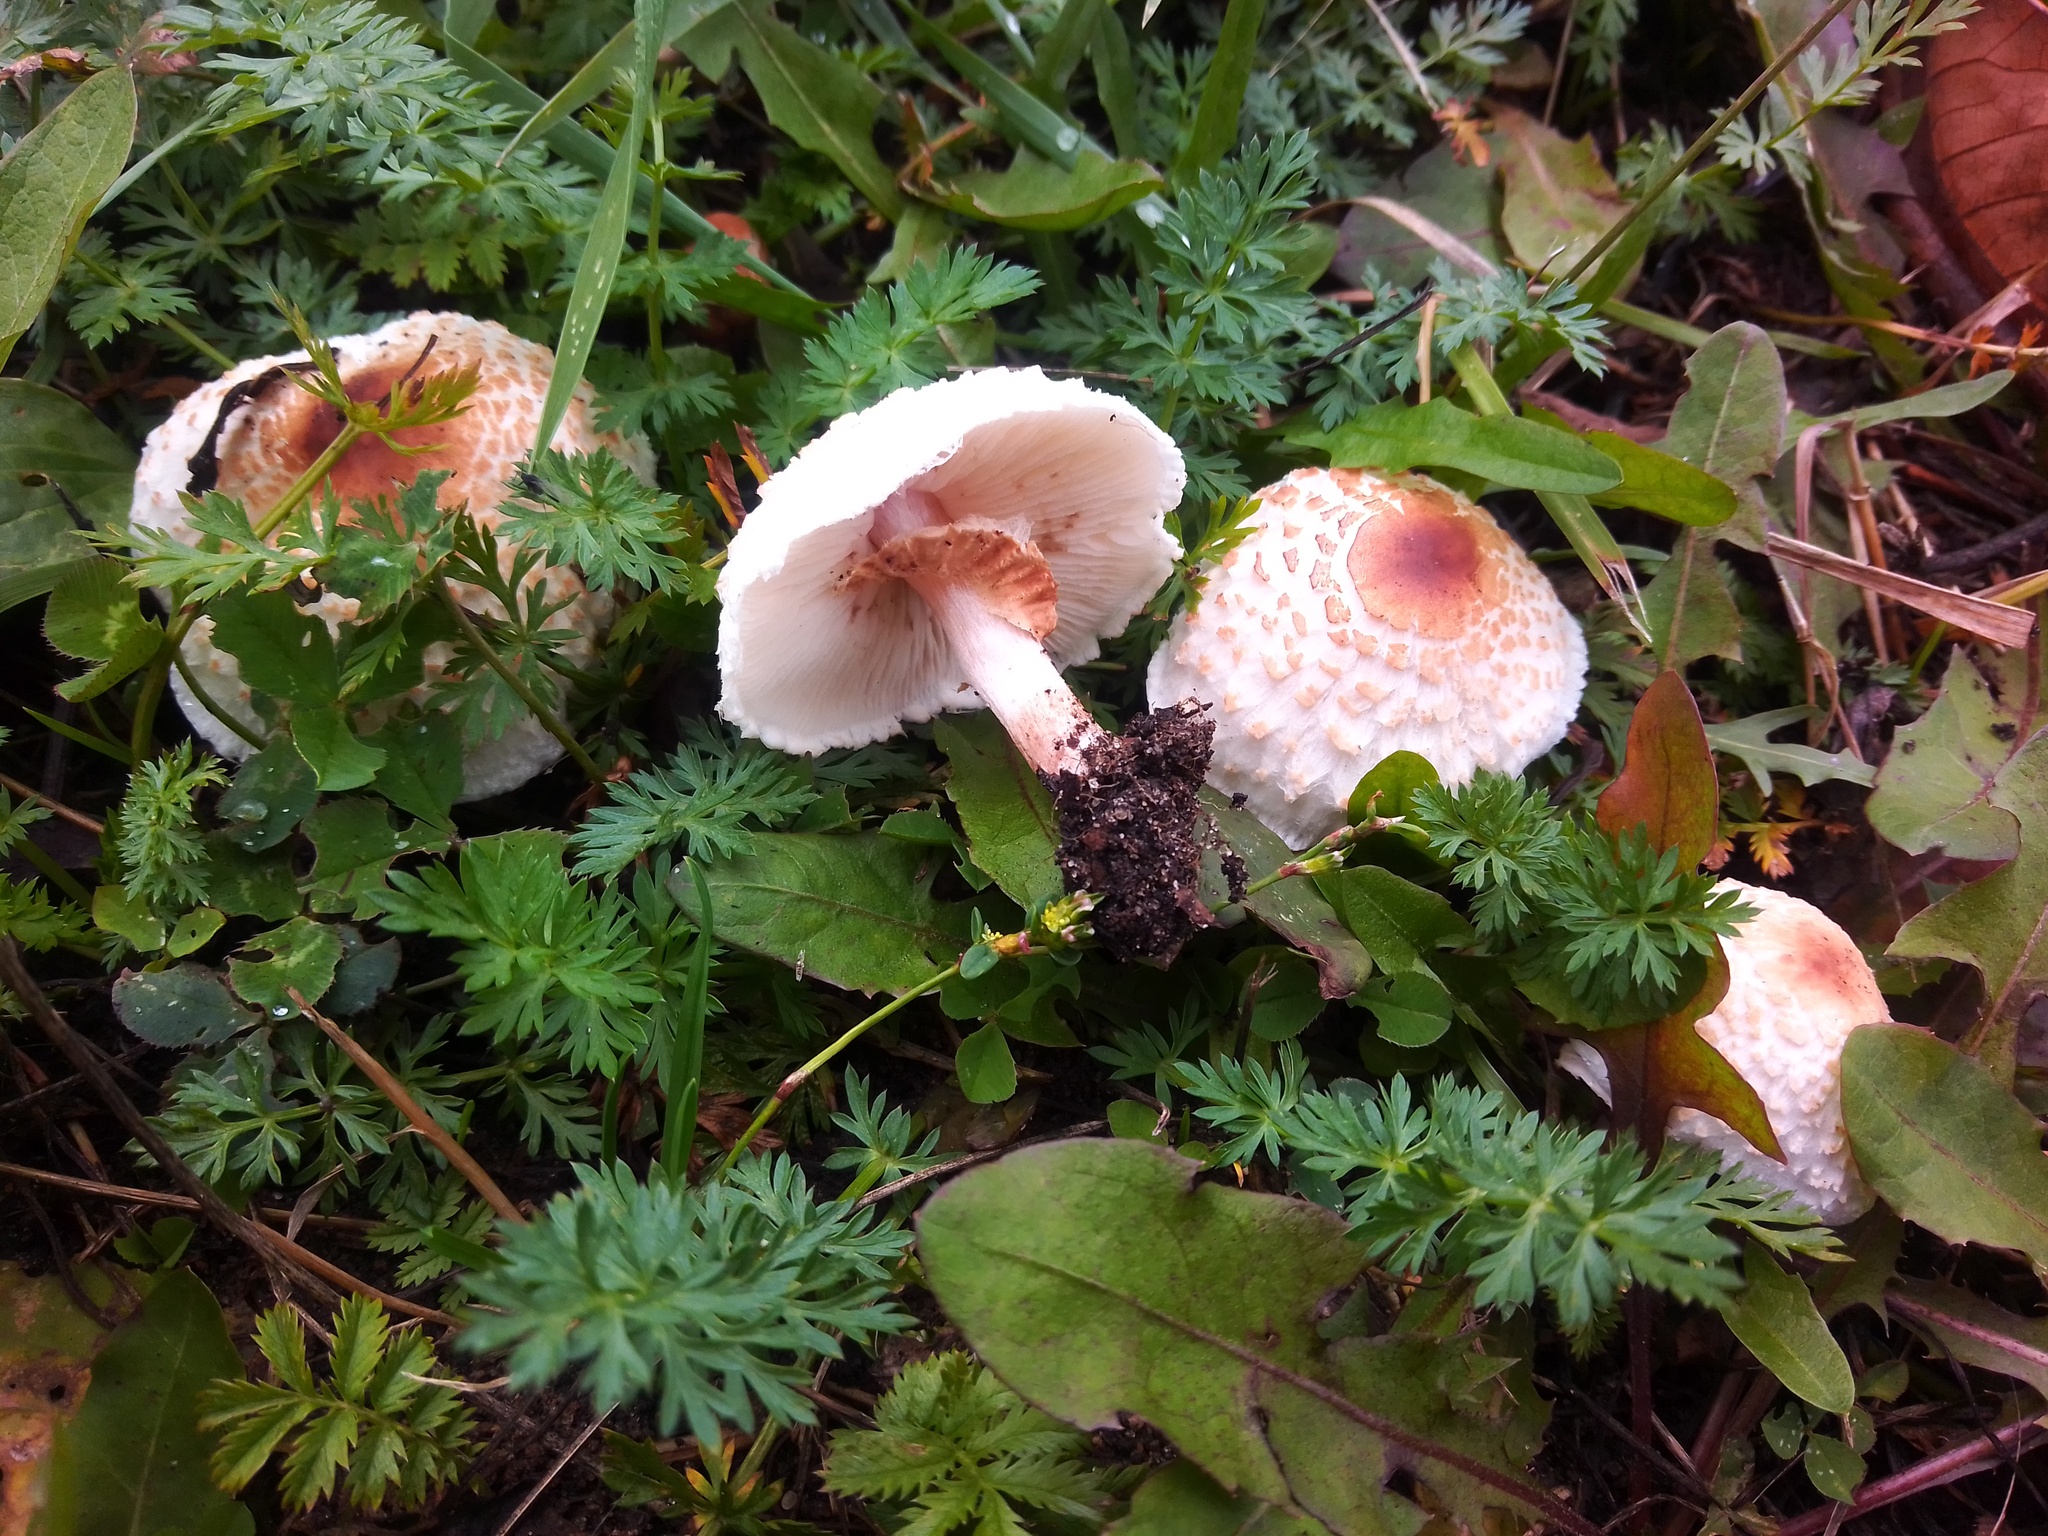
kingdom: Fungi
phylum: Basidiomycota
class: Agaricomycetes
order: Agaricales
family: Agaricaceae
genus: Lepiota
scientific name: Lepiota cristata
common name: Stinking dapperling
